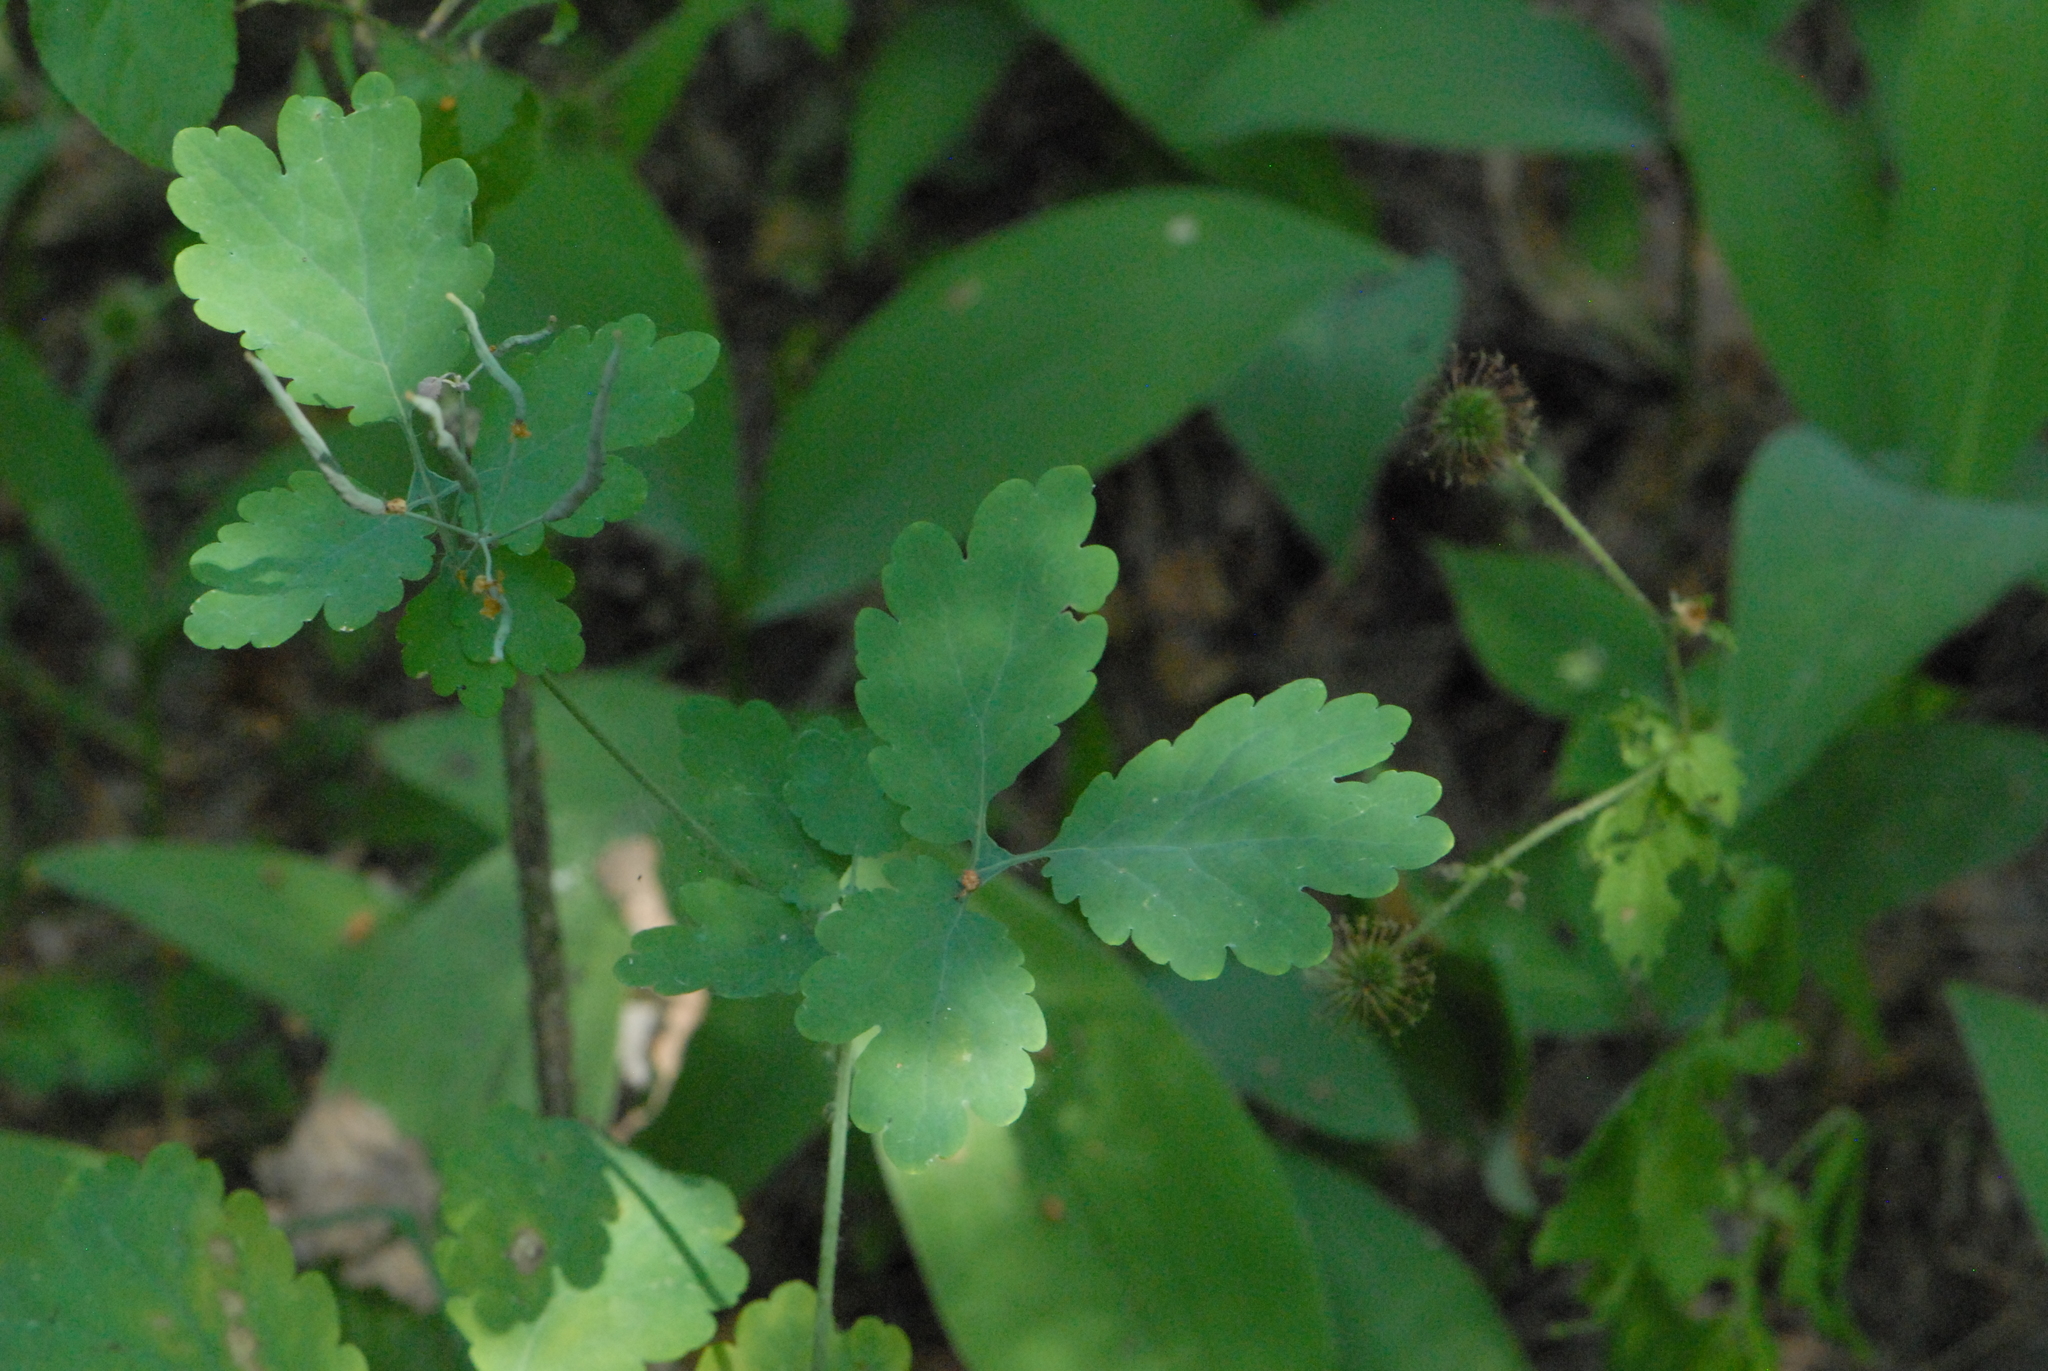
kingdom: Plantae
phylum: Tracheophyta
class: Magnoliopsida
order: Ranunculales
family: Papaveraceae
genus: Chelidonium
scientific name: Chelidonium majus
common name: Greater celandine
